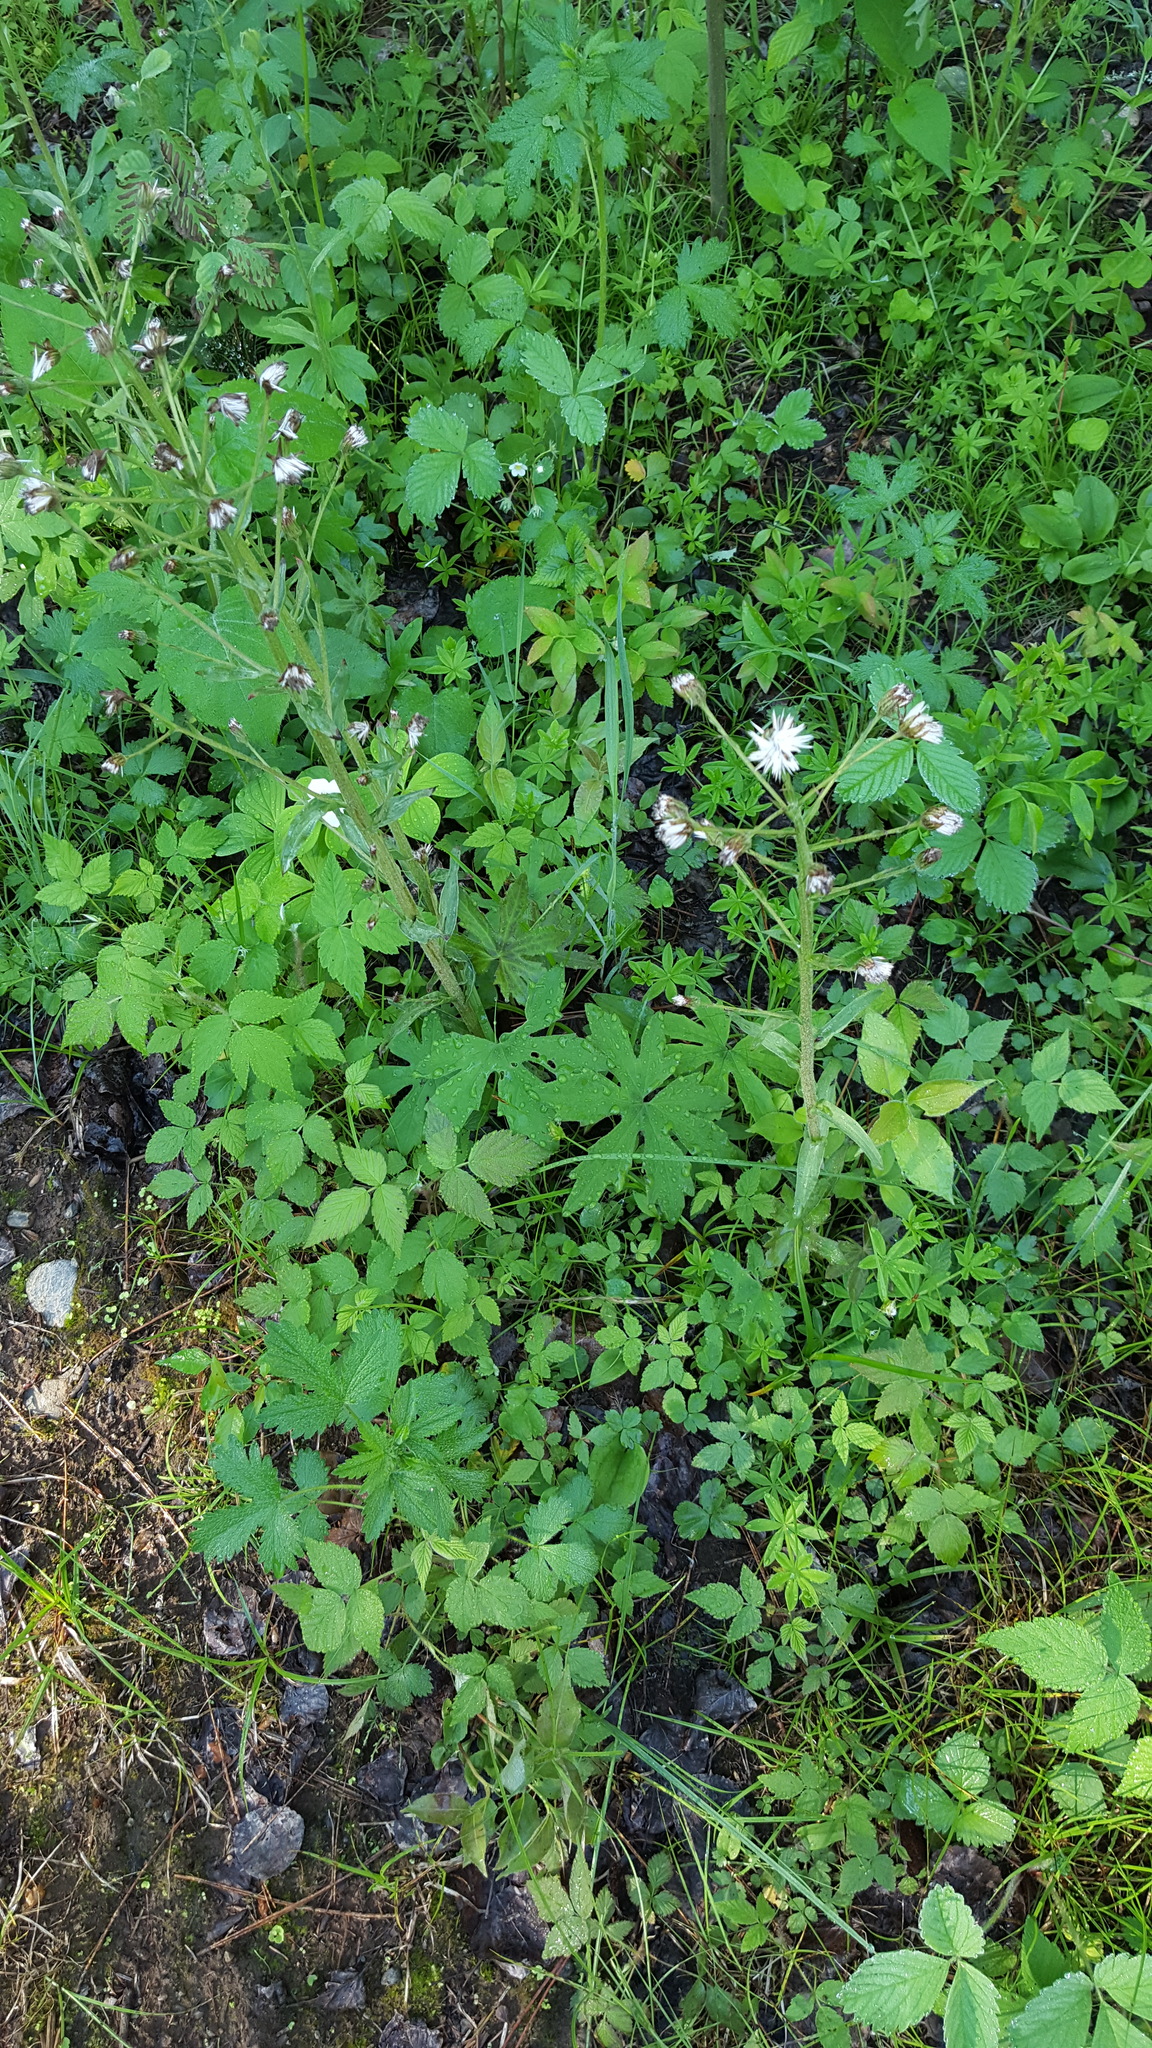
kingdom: Plantae
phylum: Tracheophyta
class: Magnoliopsida
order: Asterales
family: Asteraceae
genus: Petasites
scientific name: Petasites frigidus
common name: Arctic butterbur
